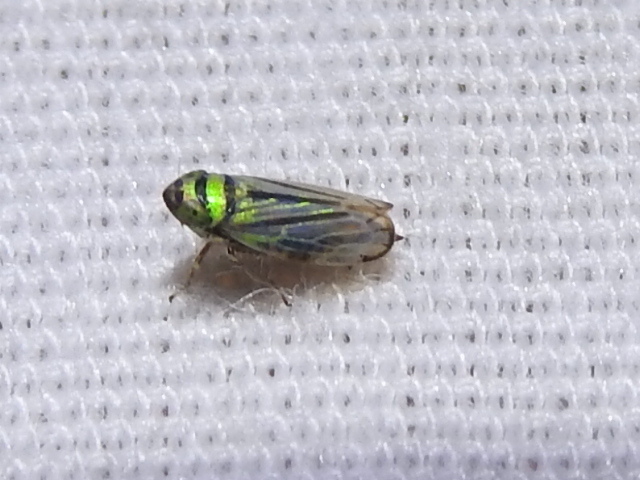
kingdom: Animalia
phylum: Arthropoda
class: Insecta
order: Hemiptera
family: Cicadellidae
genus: Stirellus
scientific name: Stirellus bicolor
